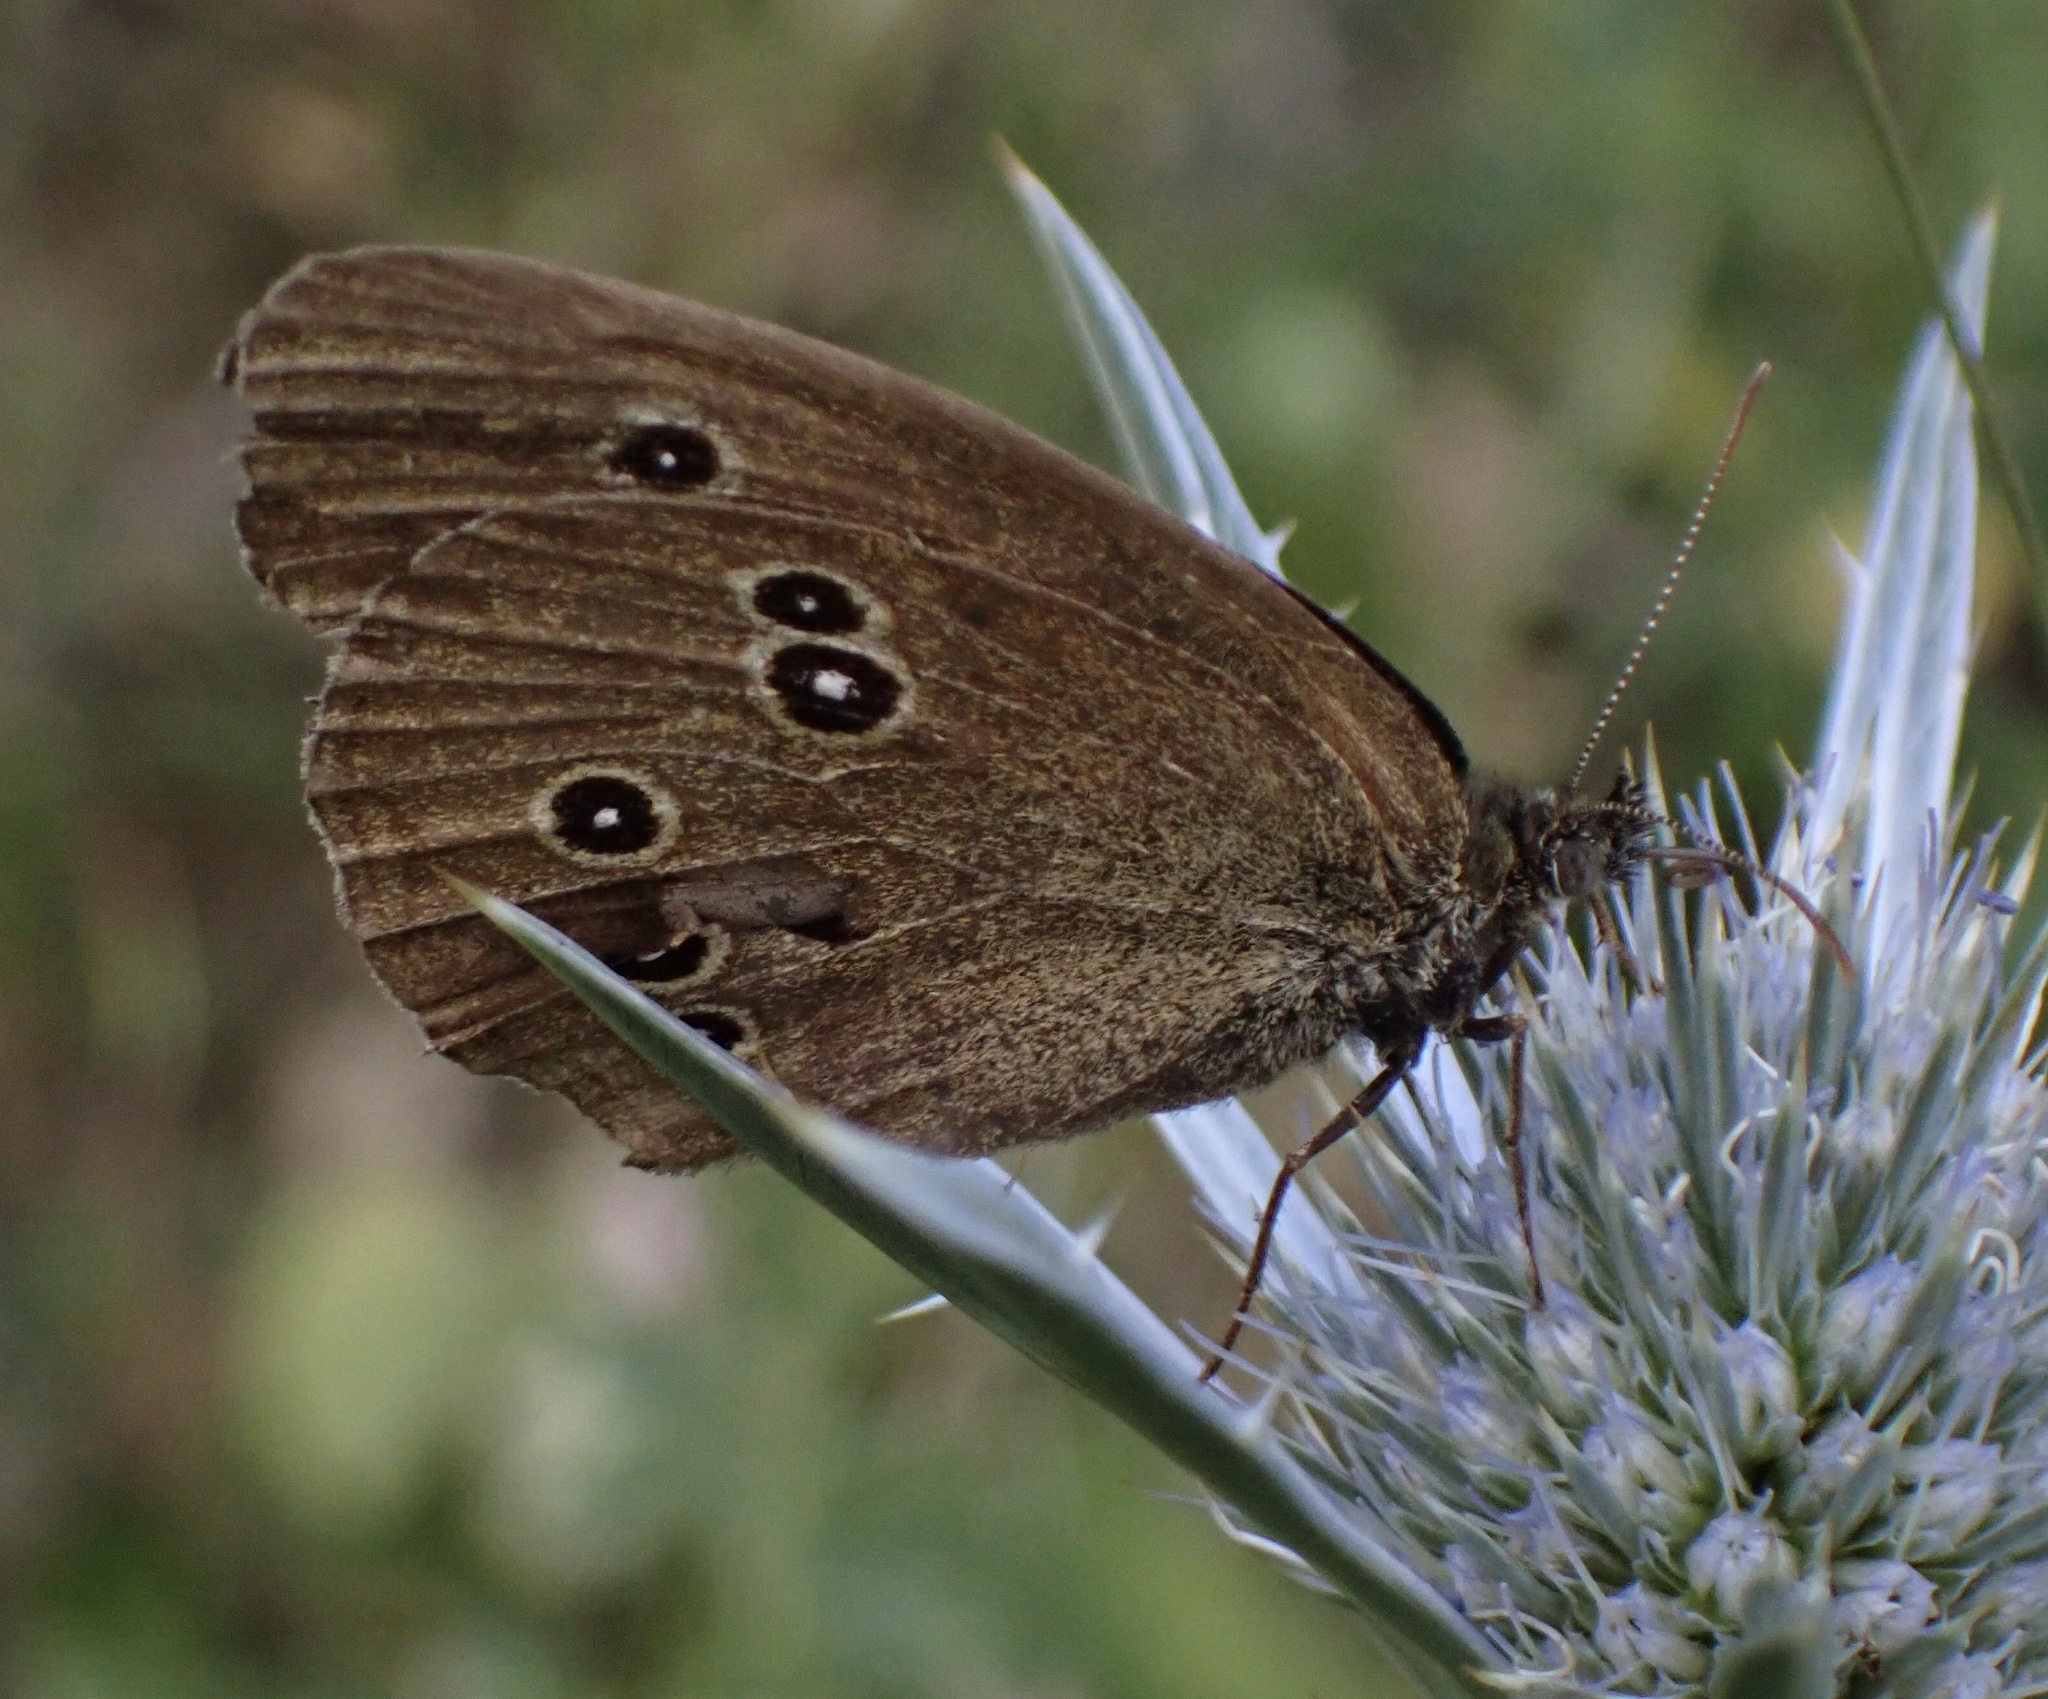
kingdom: Animalia
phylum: Arthropoda
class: Insecta
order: Lepidoptera
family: Nymphalidae
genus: Aphantopus
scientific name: Aphantopus hyperantus
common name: Ringlet
